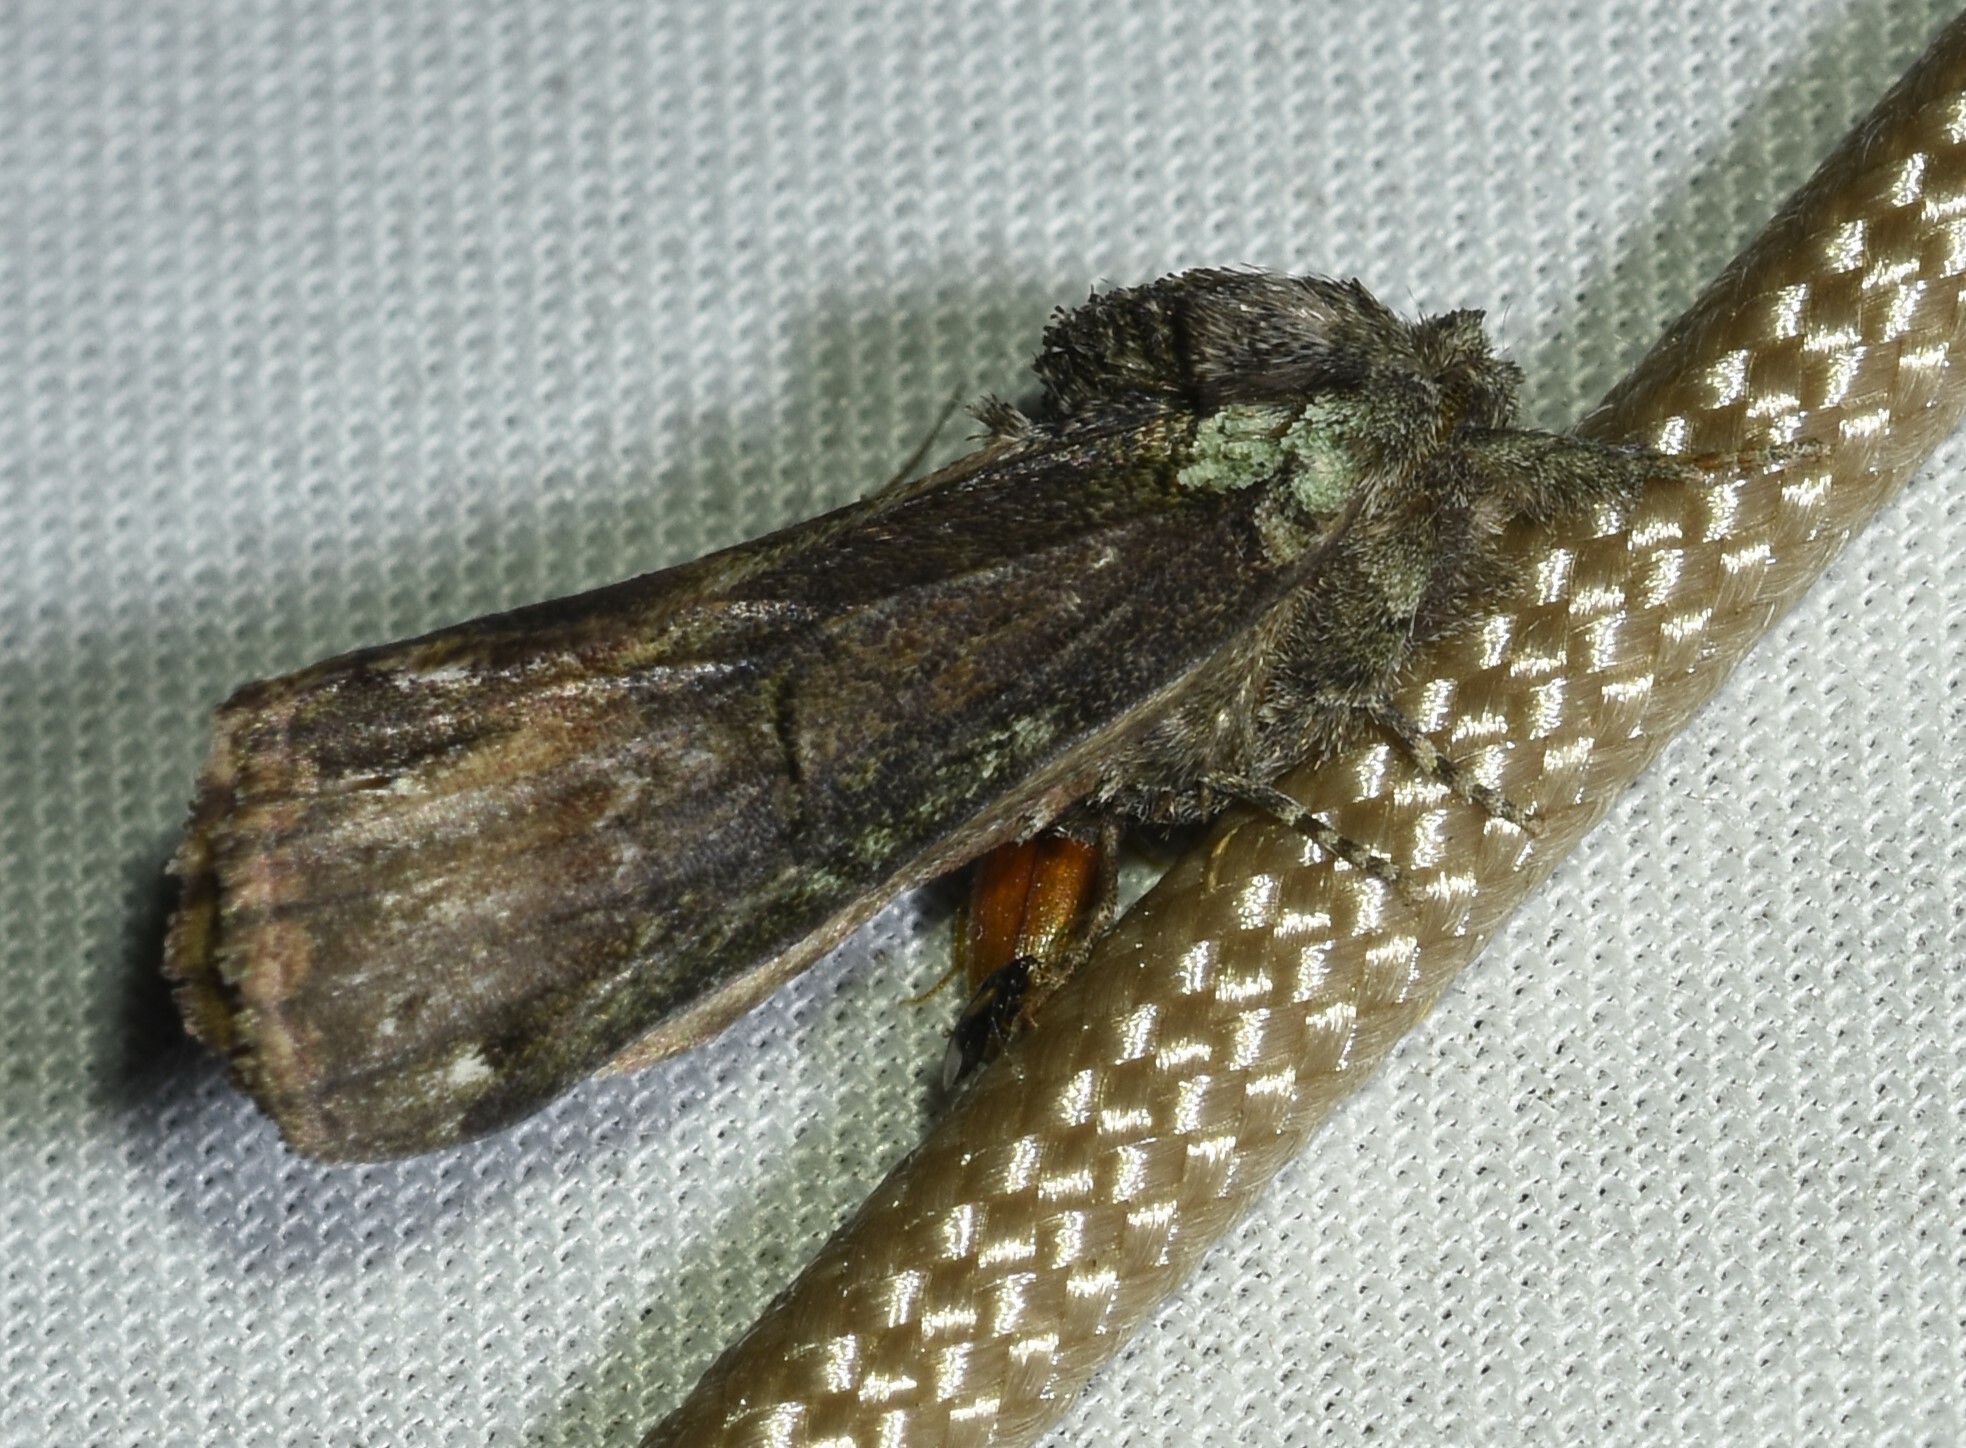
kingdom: Animalia
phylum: Arthropoda
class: Insecta
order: Lepidoptera
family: Notodontidae
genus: Schizura
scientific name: Schizura
